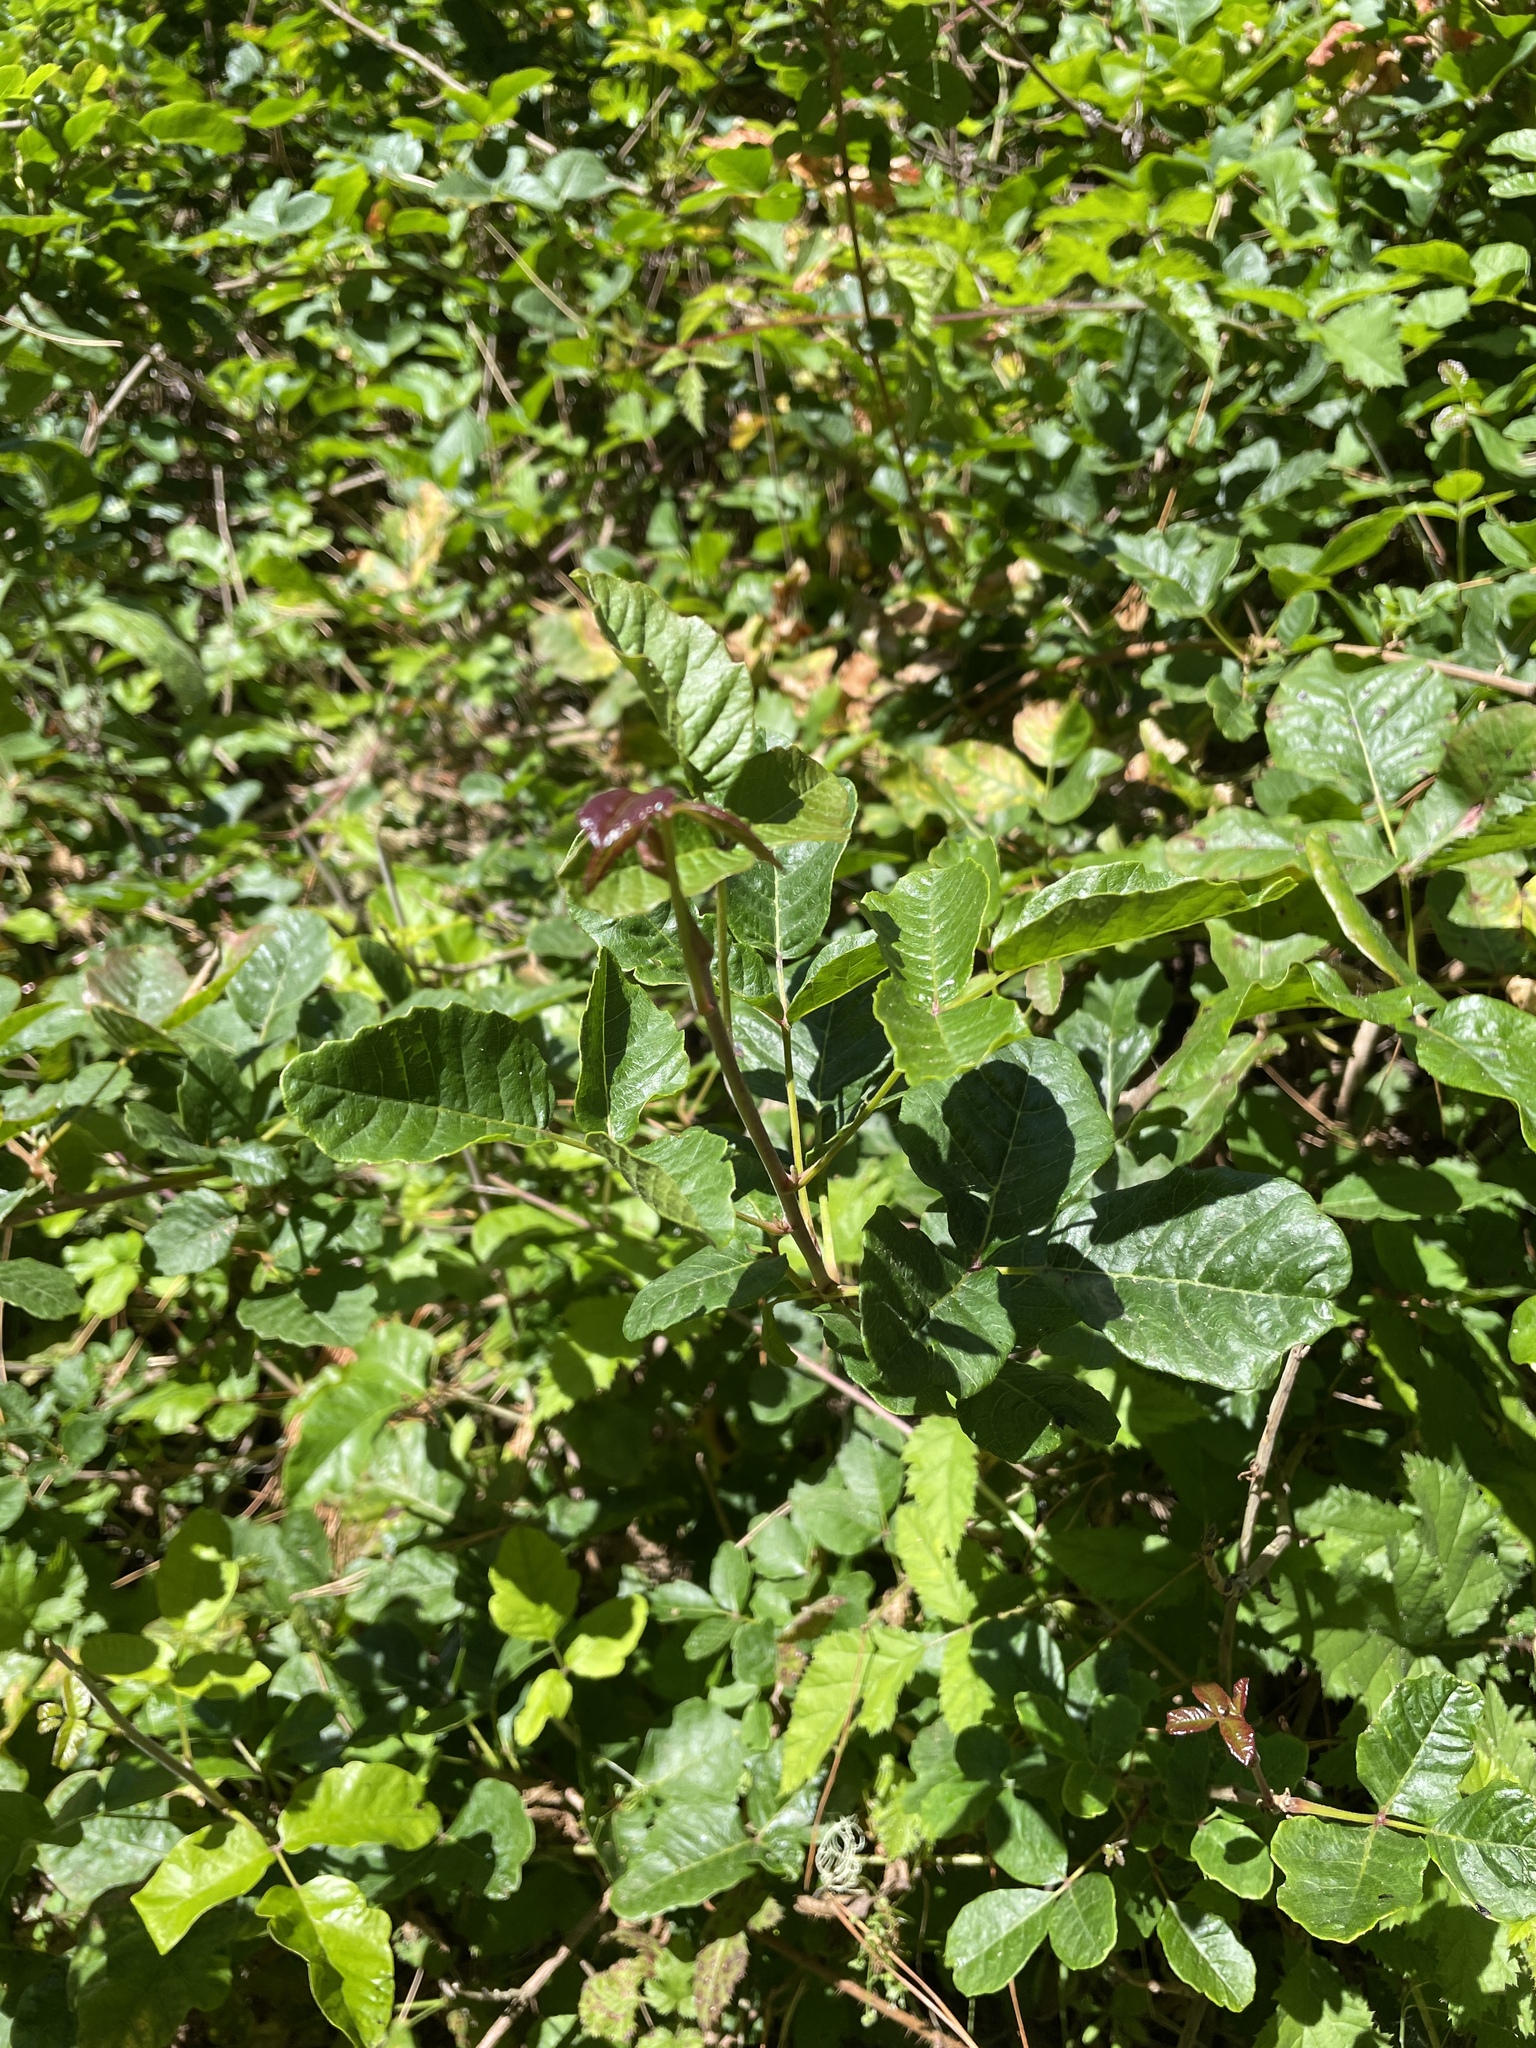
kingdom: Plantae
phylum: Tracheophyta
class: Magnoliopsida
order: Sapindales
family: Anacardiaceae
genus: Toxicodendron
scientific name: Toxicodendron diversilobum
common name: Pacific poison-oak
